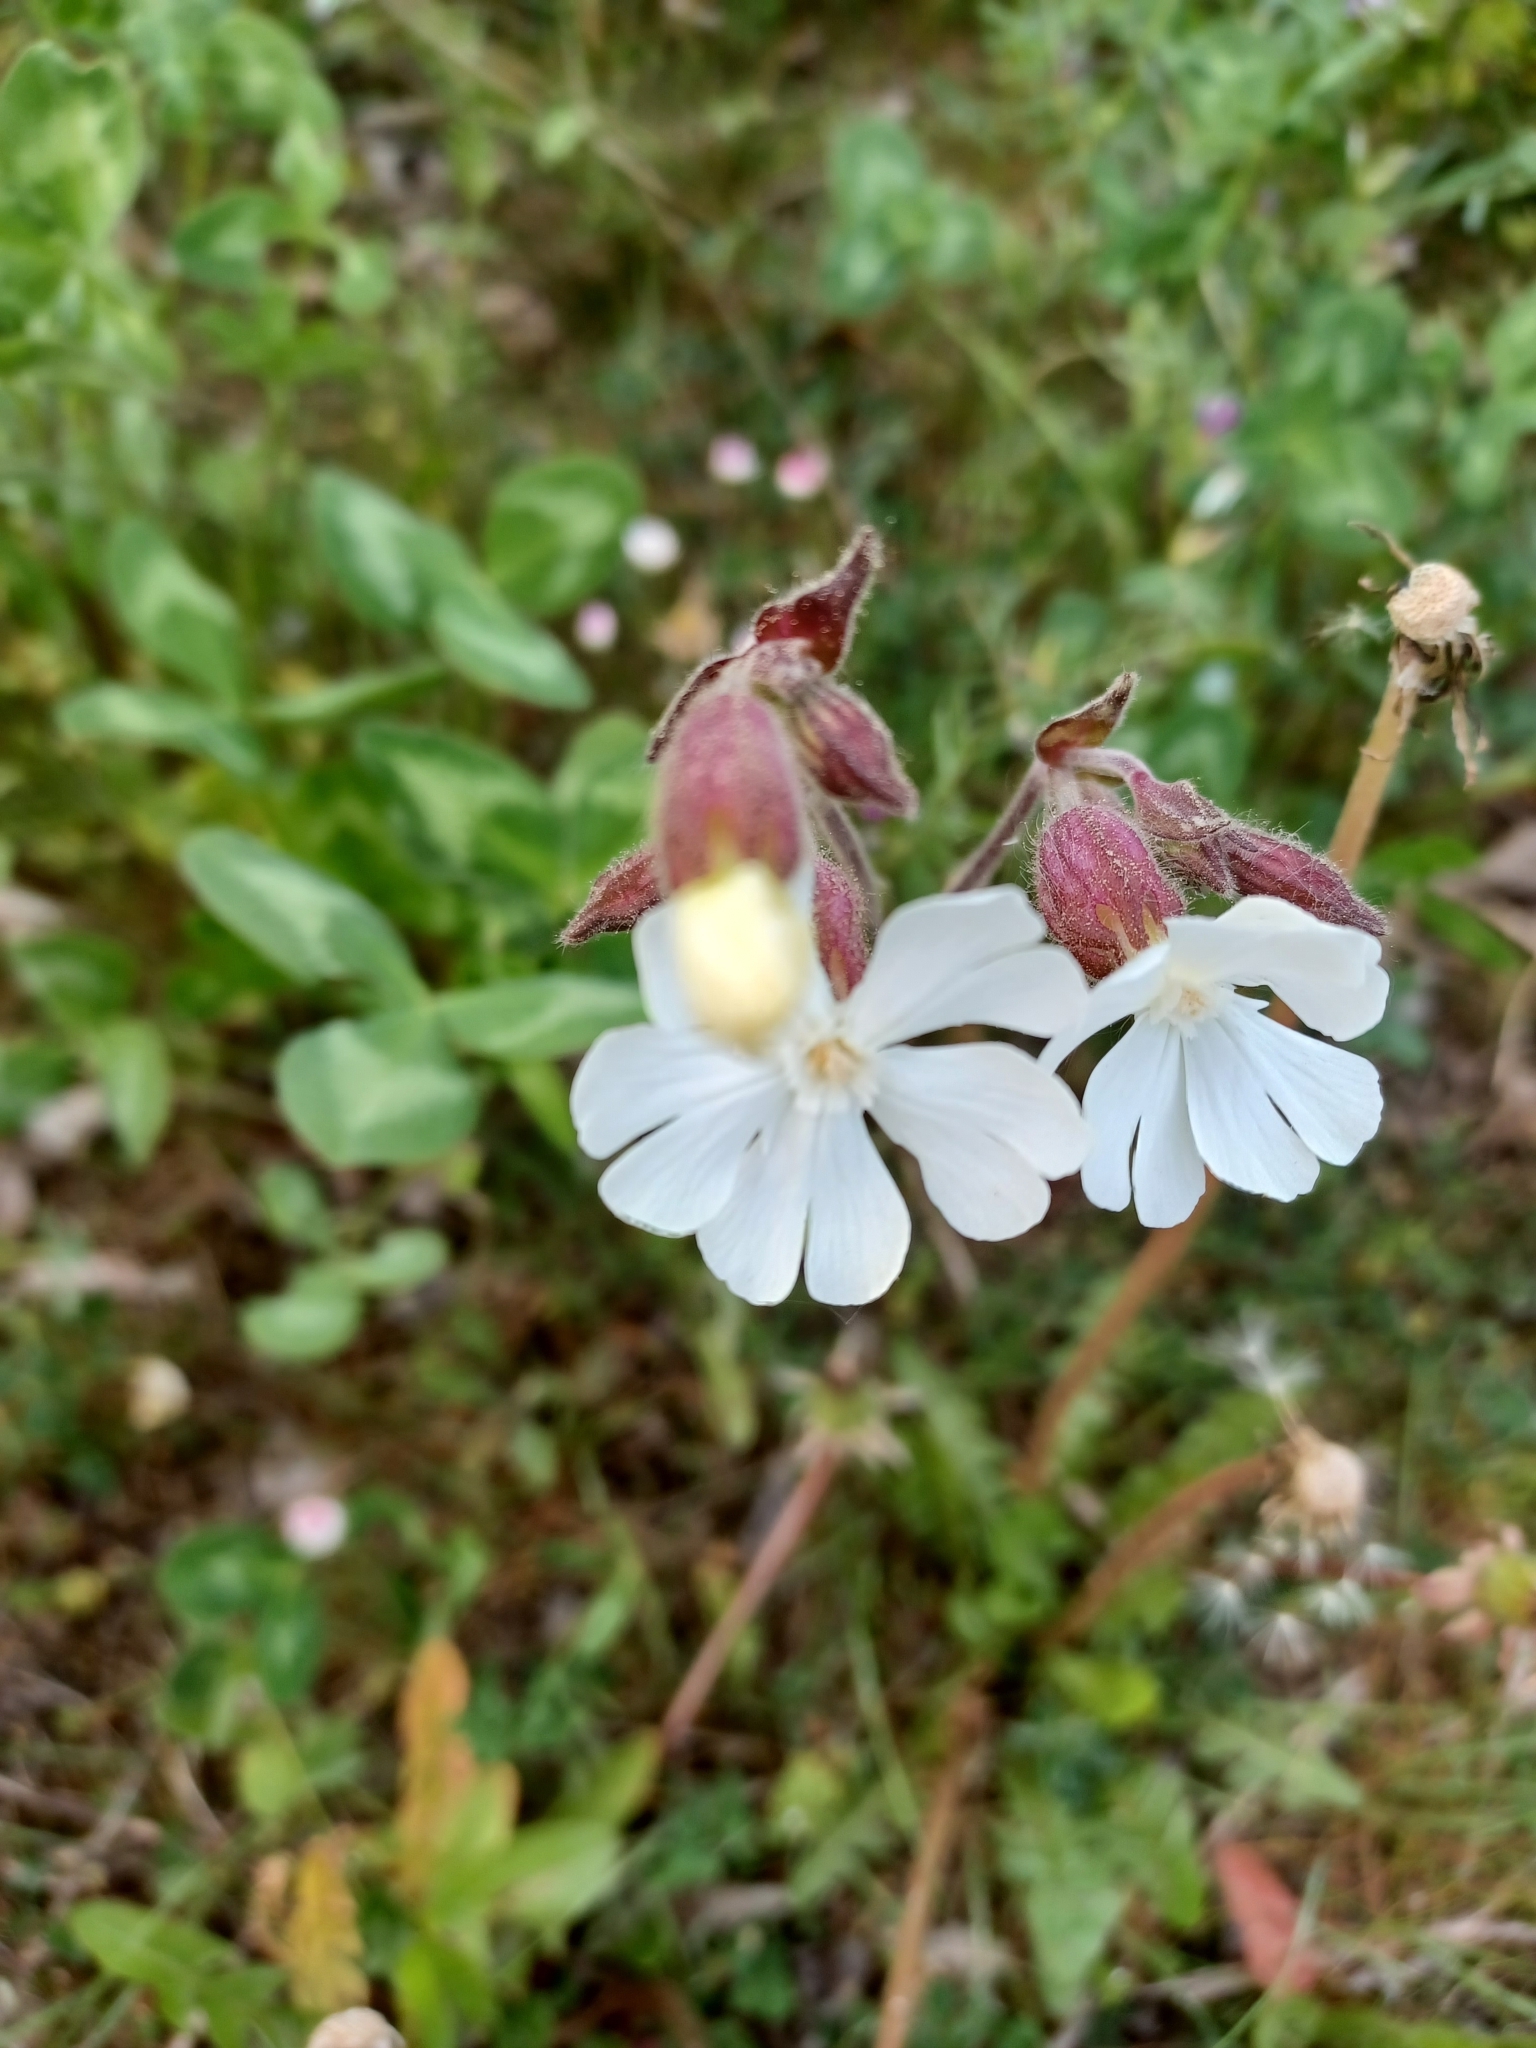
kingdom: Plantae
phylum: Tracheophyta
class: Magnoliopsida
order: Caryophyllales
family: Caryophyllaceae
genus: Silene
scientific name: Silene latifolia
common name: White campion
